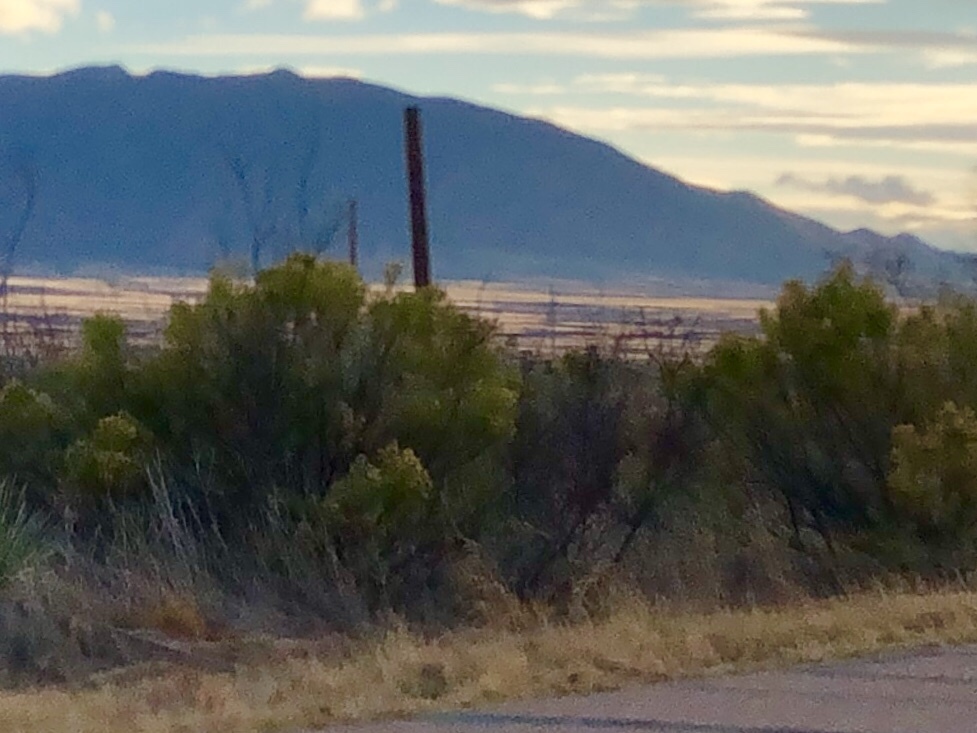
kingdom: Plantae
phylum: Tracheophyta
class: Magnoliopsida
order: Asterales
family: Asteraceae
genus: Baccharis
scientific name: Baccharis sarothroides
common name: Desert-broom
